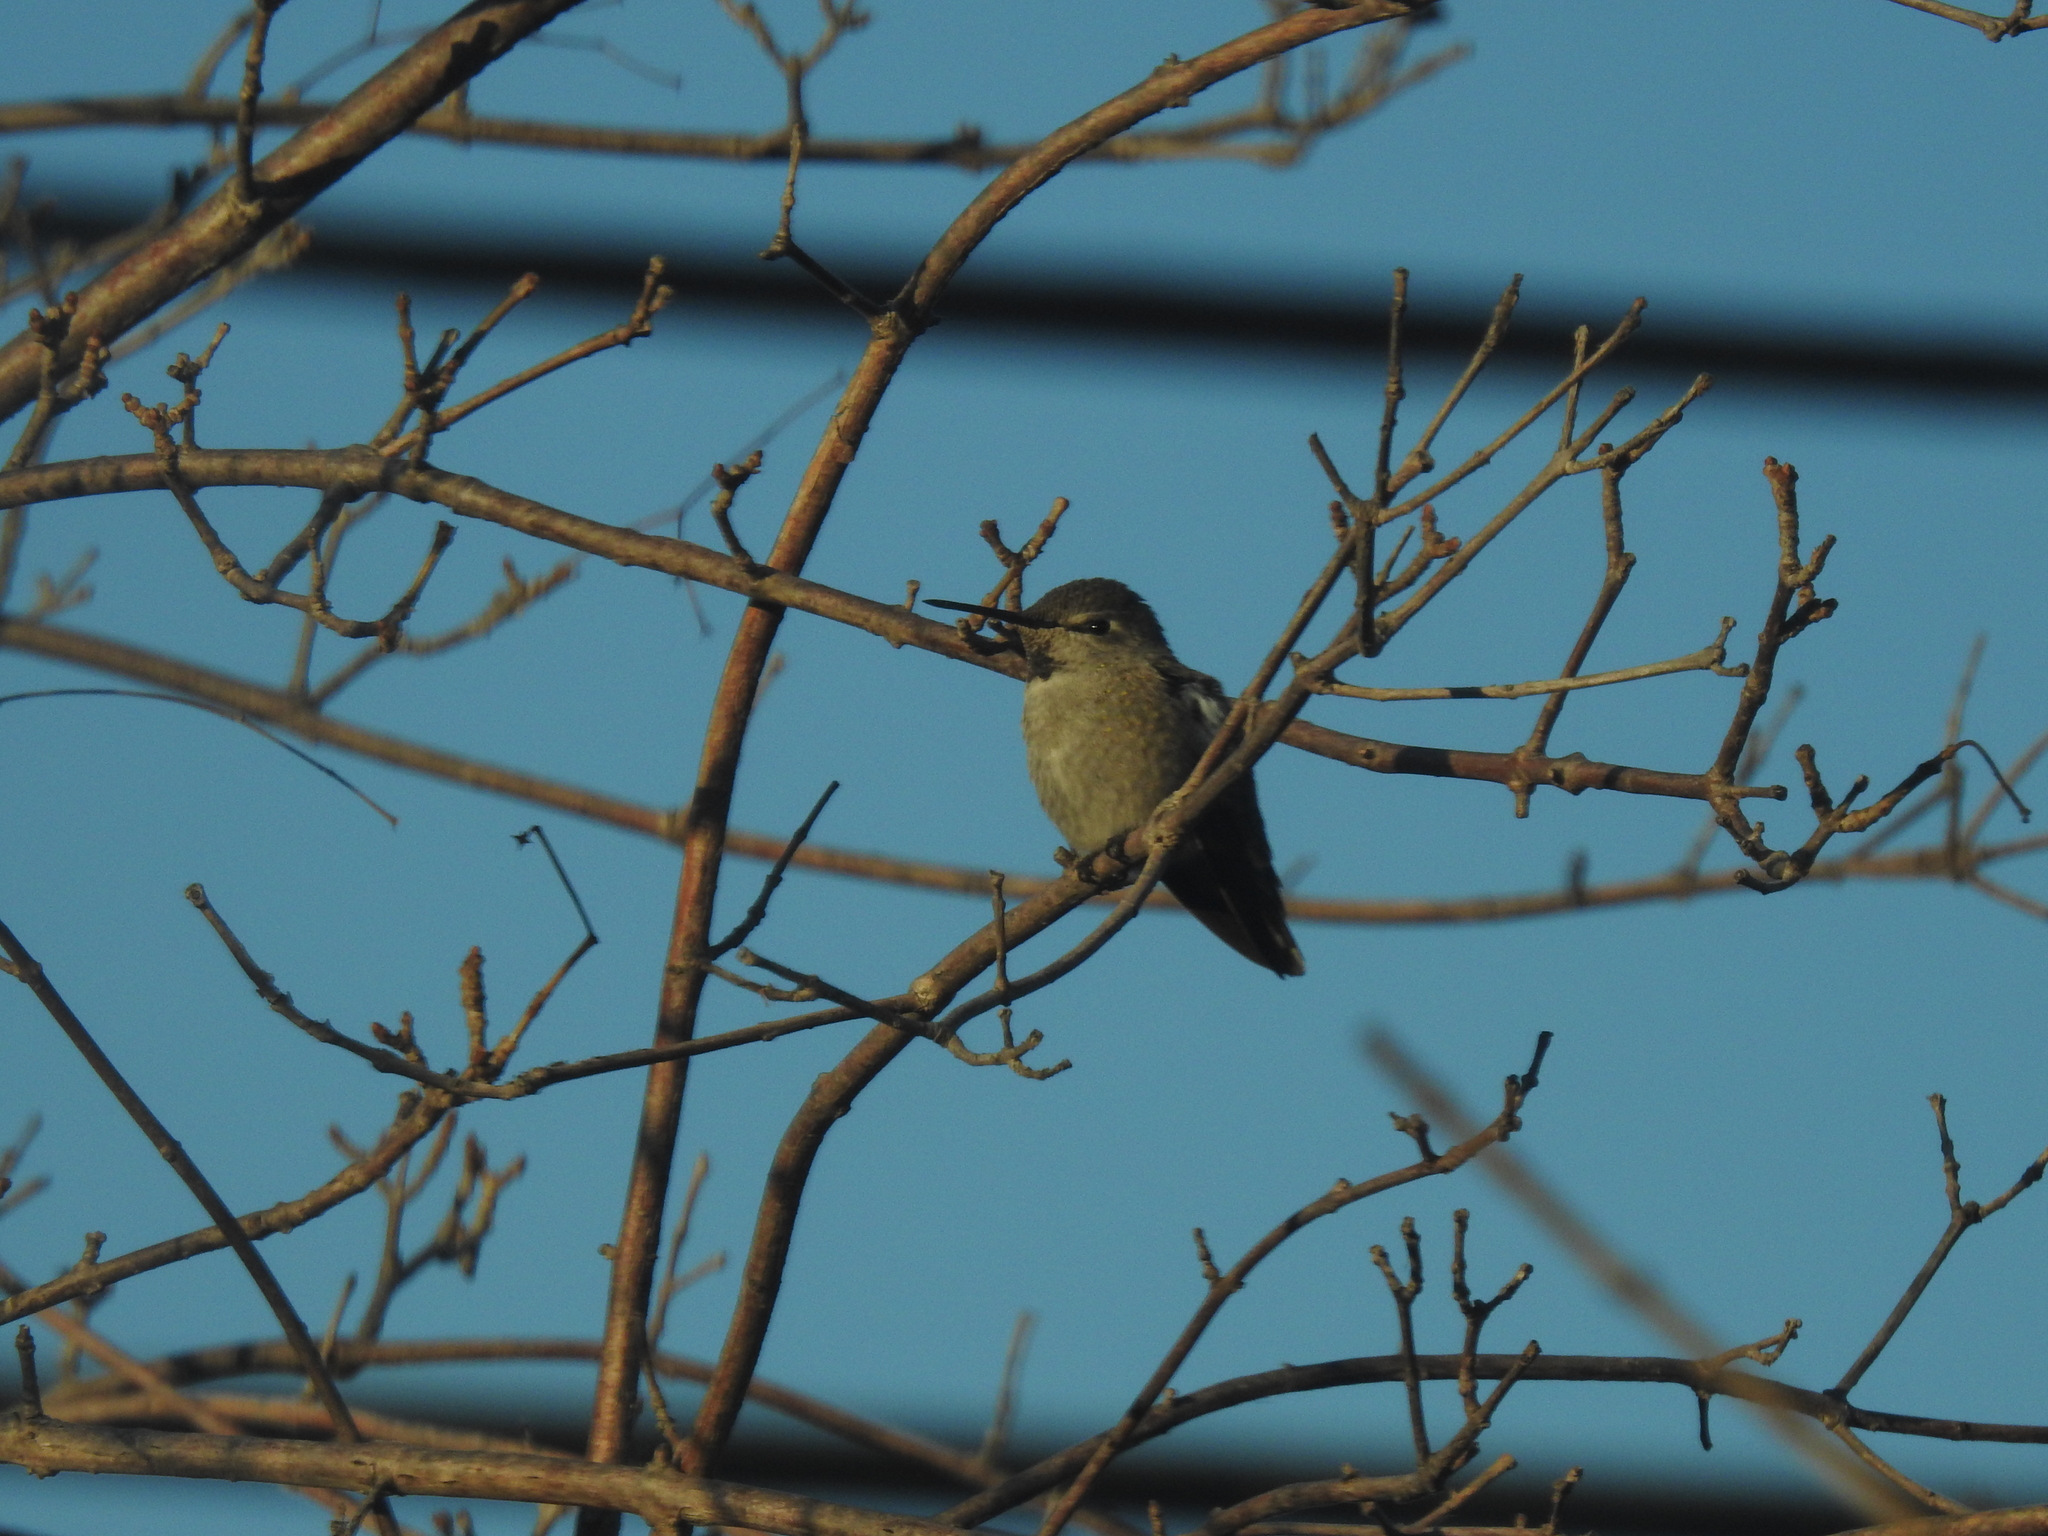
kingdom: Animalia
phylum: Chordata
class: Aves
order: Apodiformes
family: Trochilidae
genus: Calypte
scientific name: Calypte anna
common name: Anna's hummingbird
